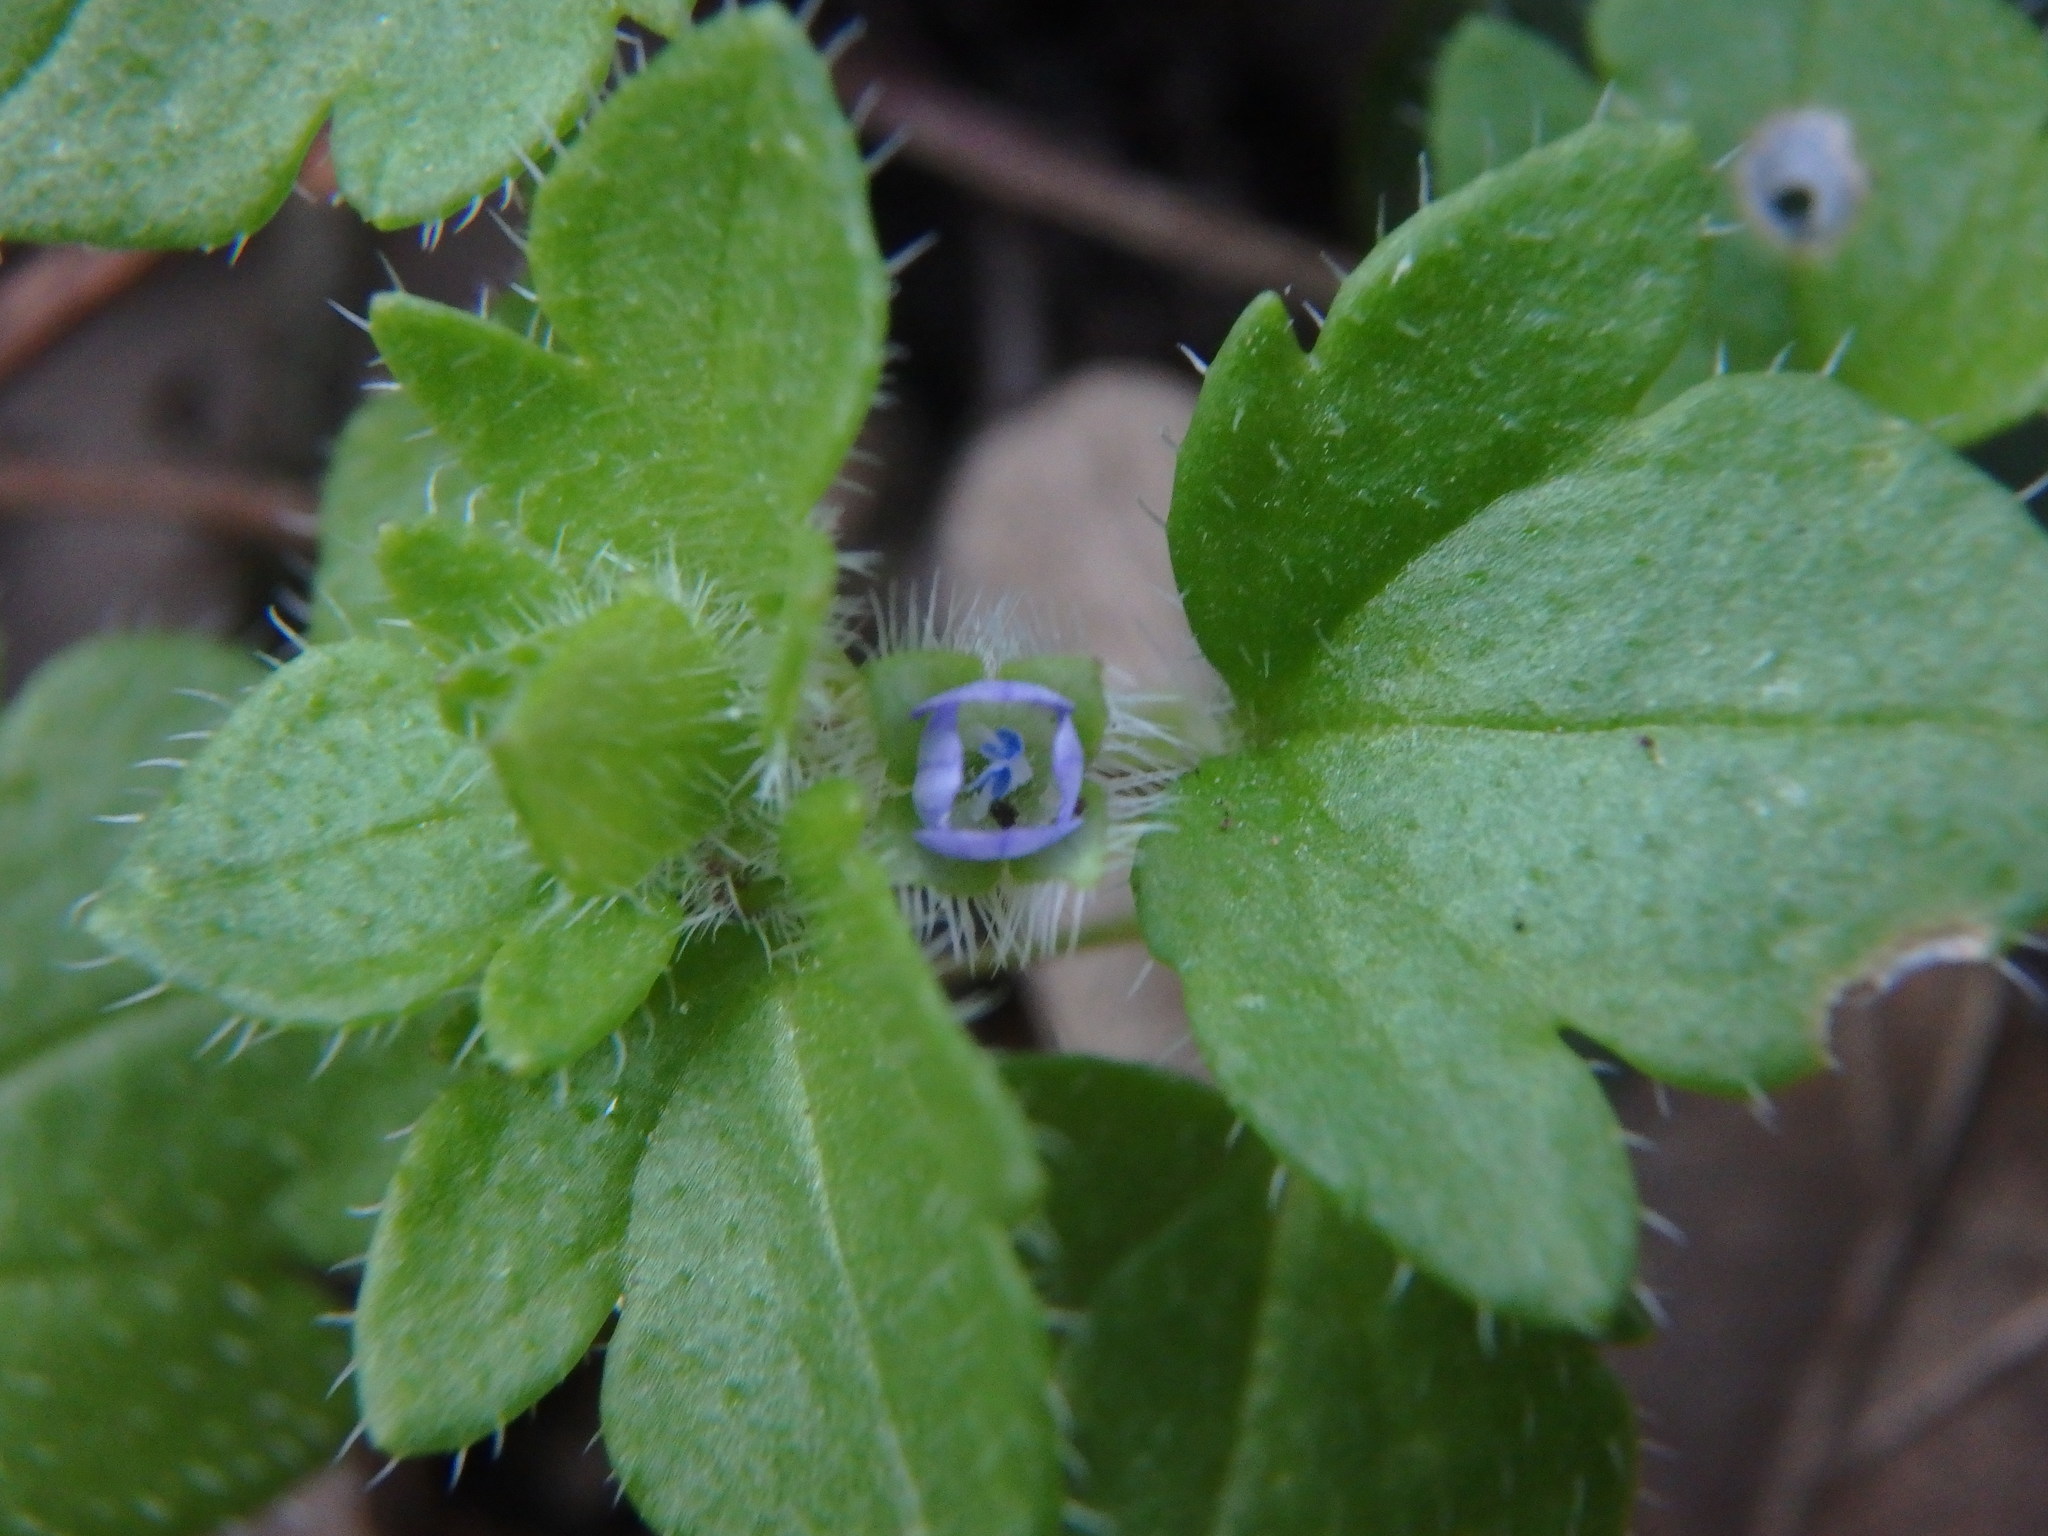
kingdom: Plantae
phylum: Tracheophyta
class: Magnoliopsida
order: Lamiales
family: Plantaginaceae
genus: Veronica
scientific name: Veronica hederifolia
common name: Ivy-leaved speedwell
